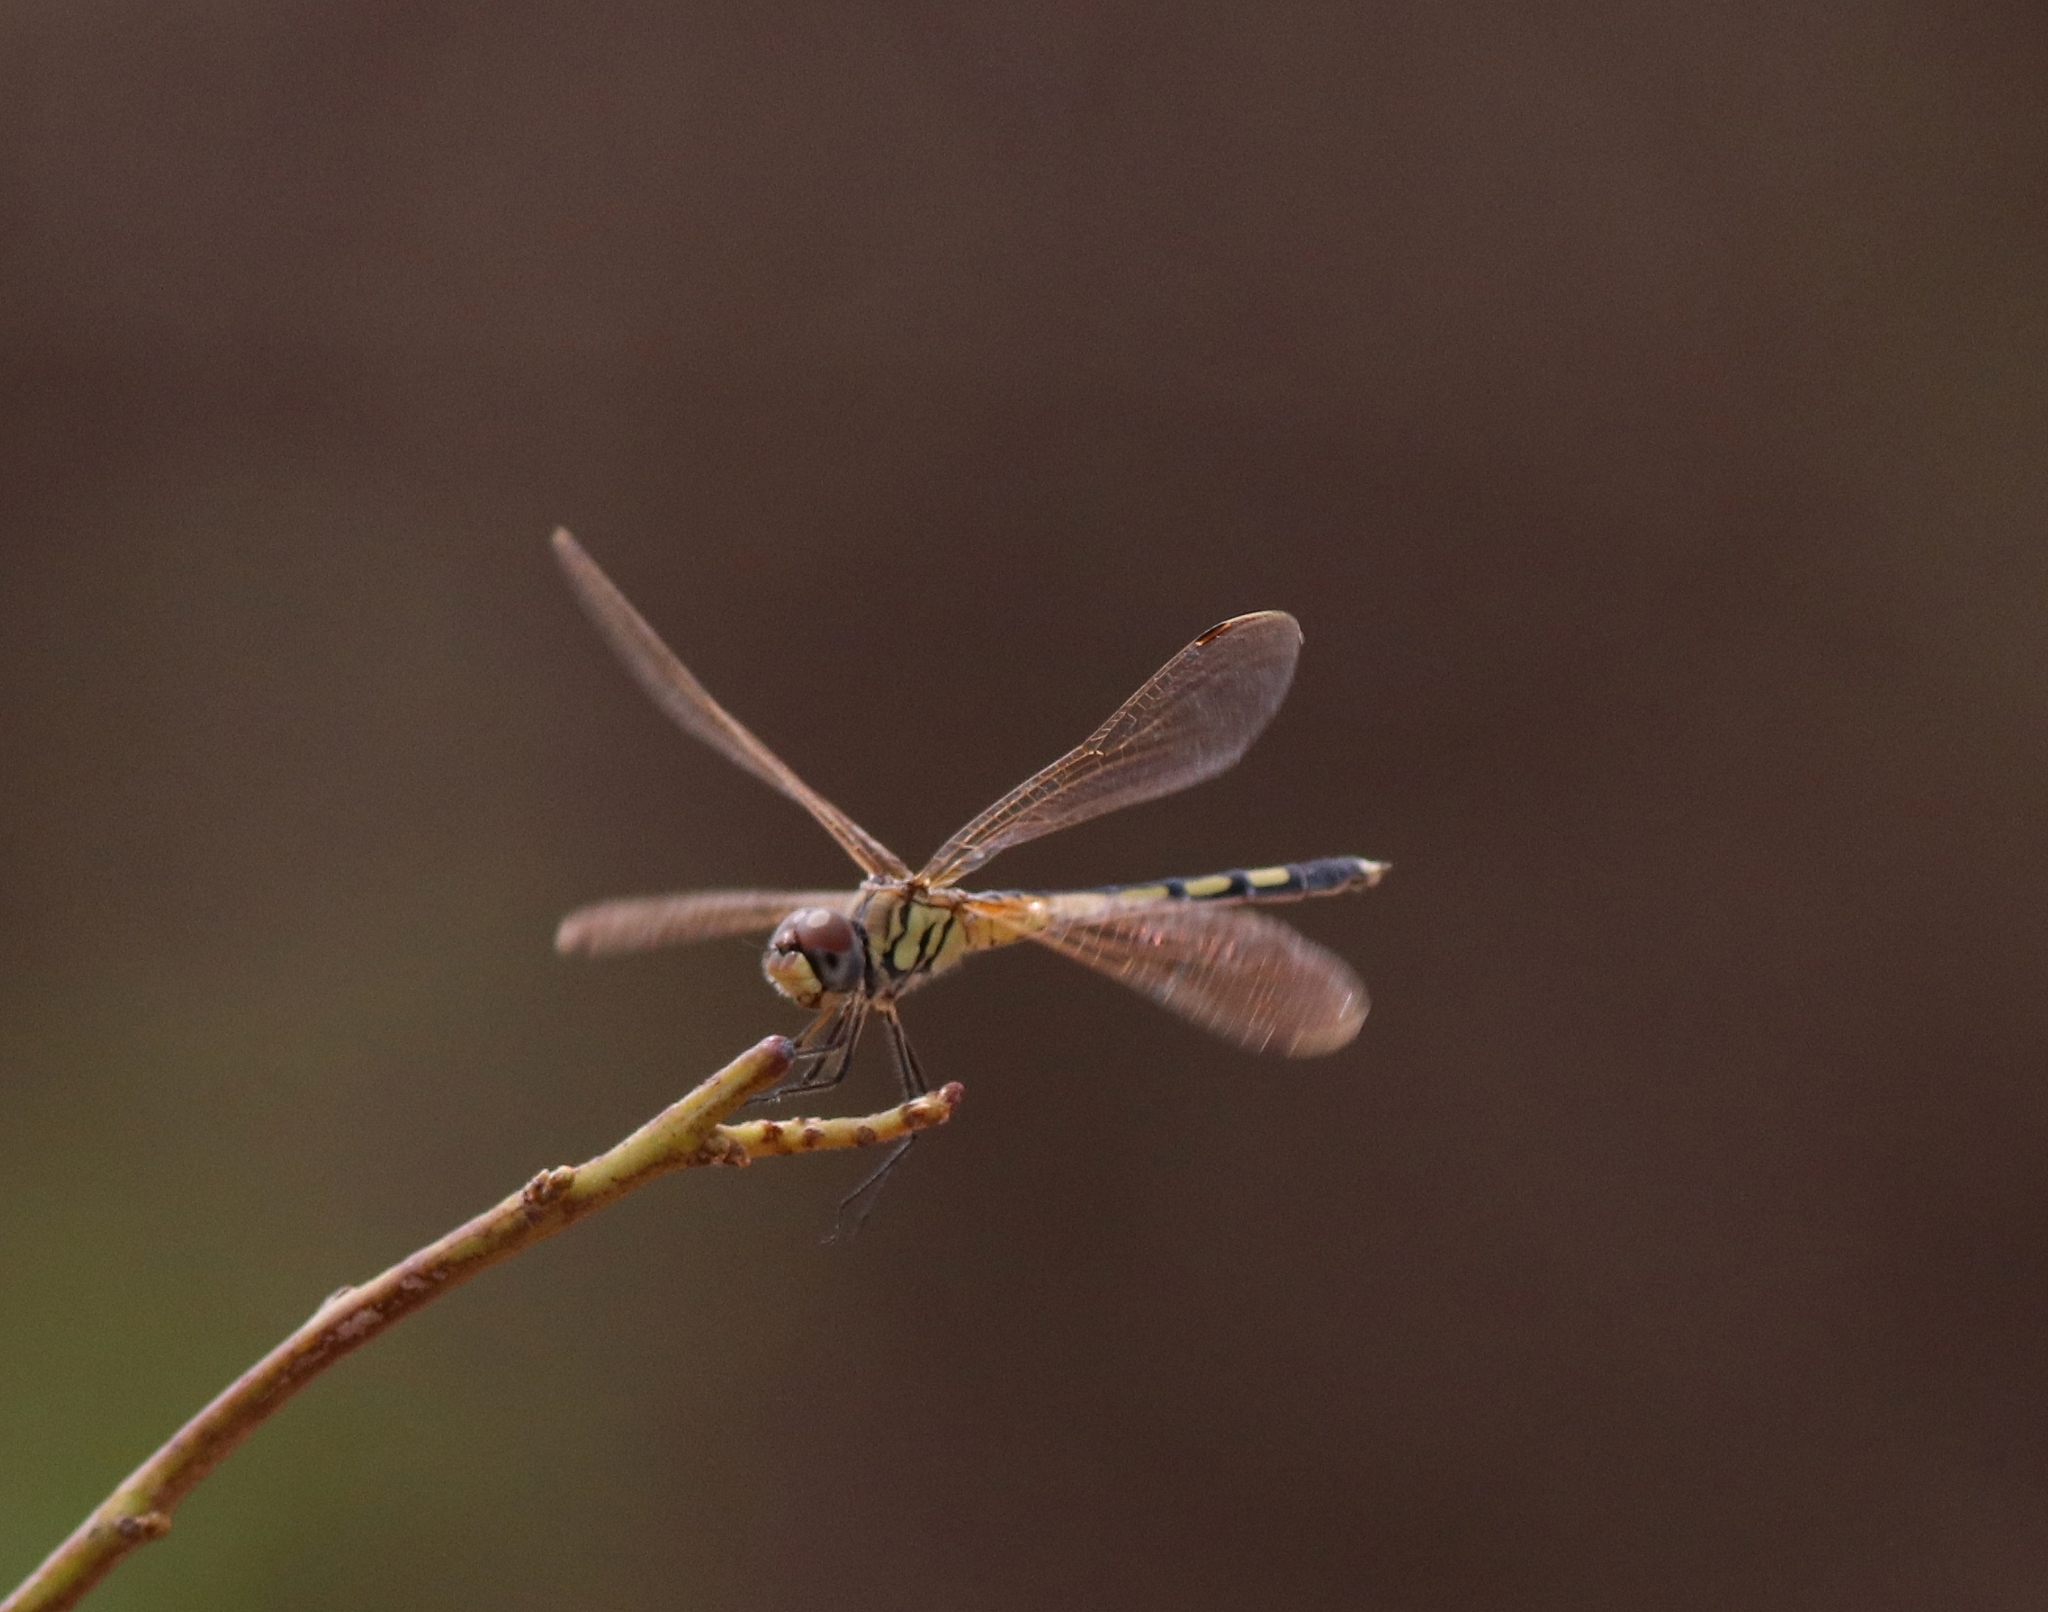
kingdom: Animalia
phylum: Arthropoda
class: Insecta
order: Odonata
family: Libellulidae
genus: Trithemis
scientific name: Trithemis pallidinervis
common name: Dancing dropwing
